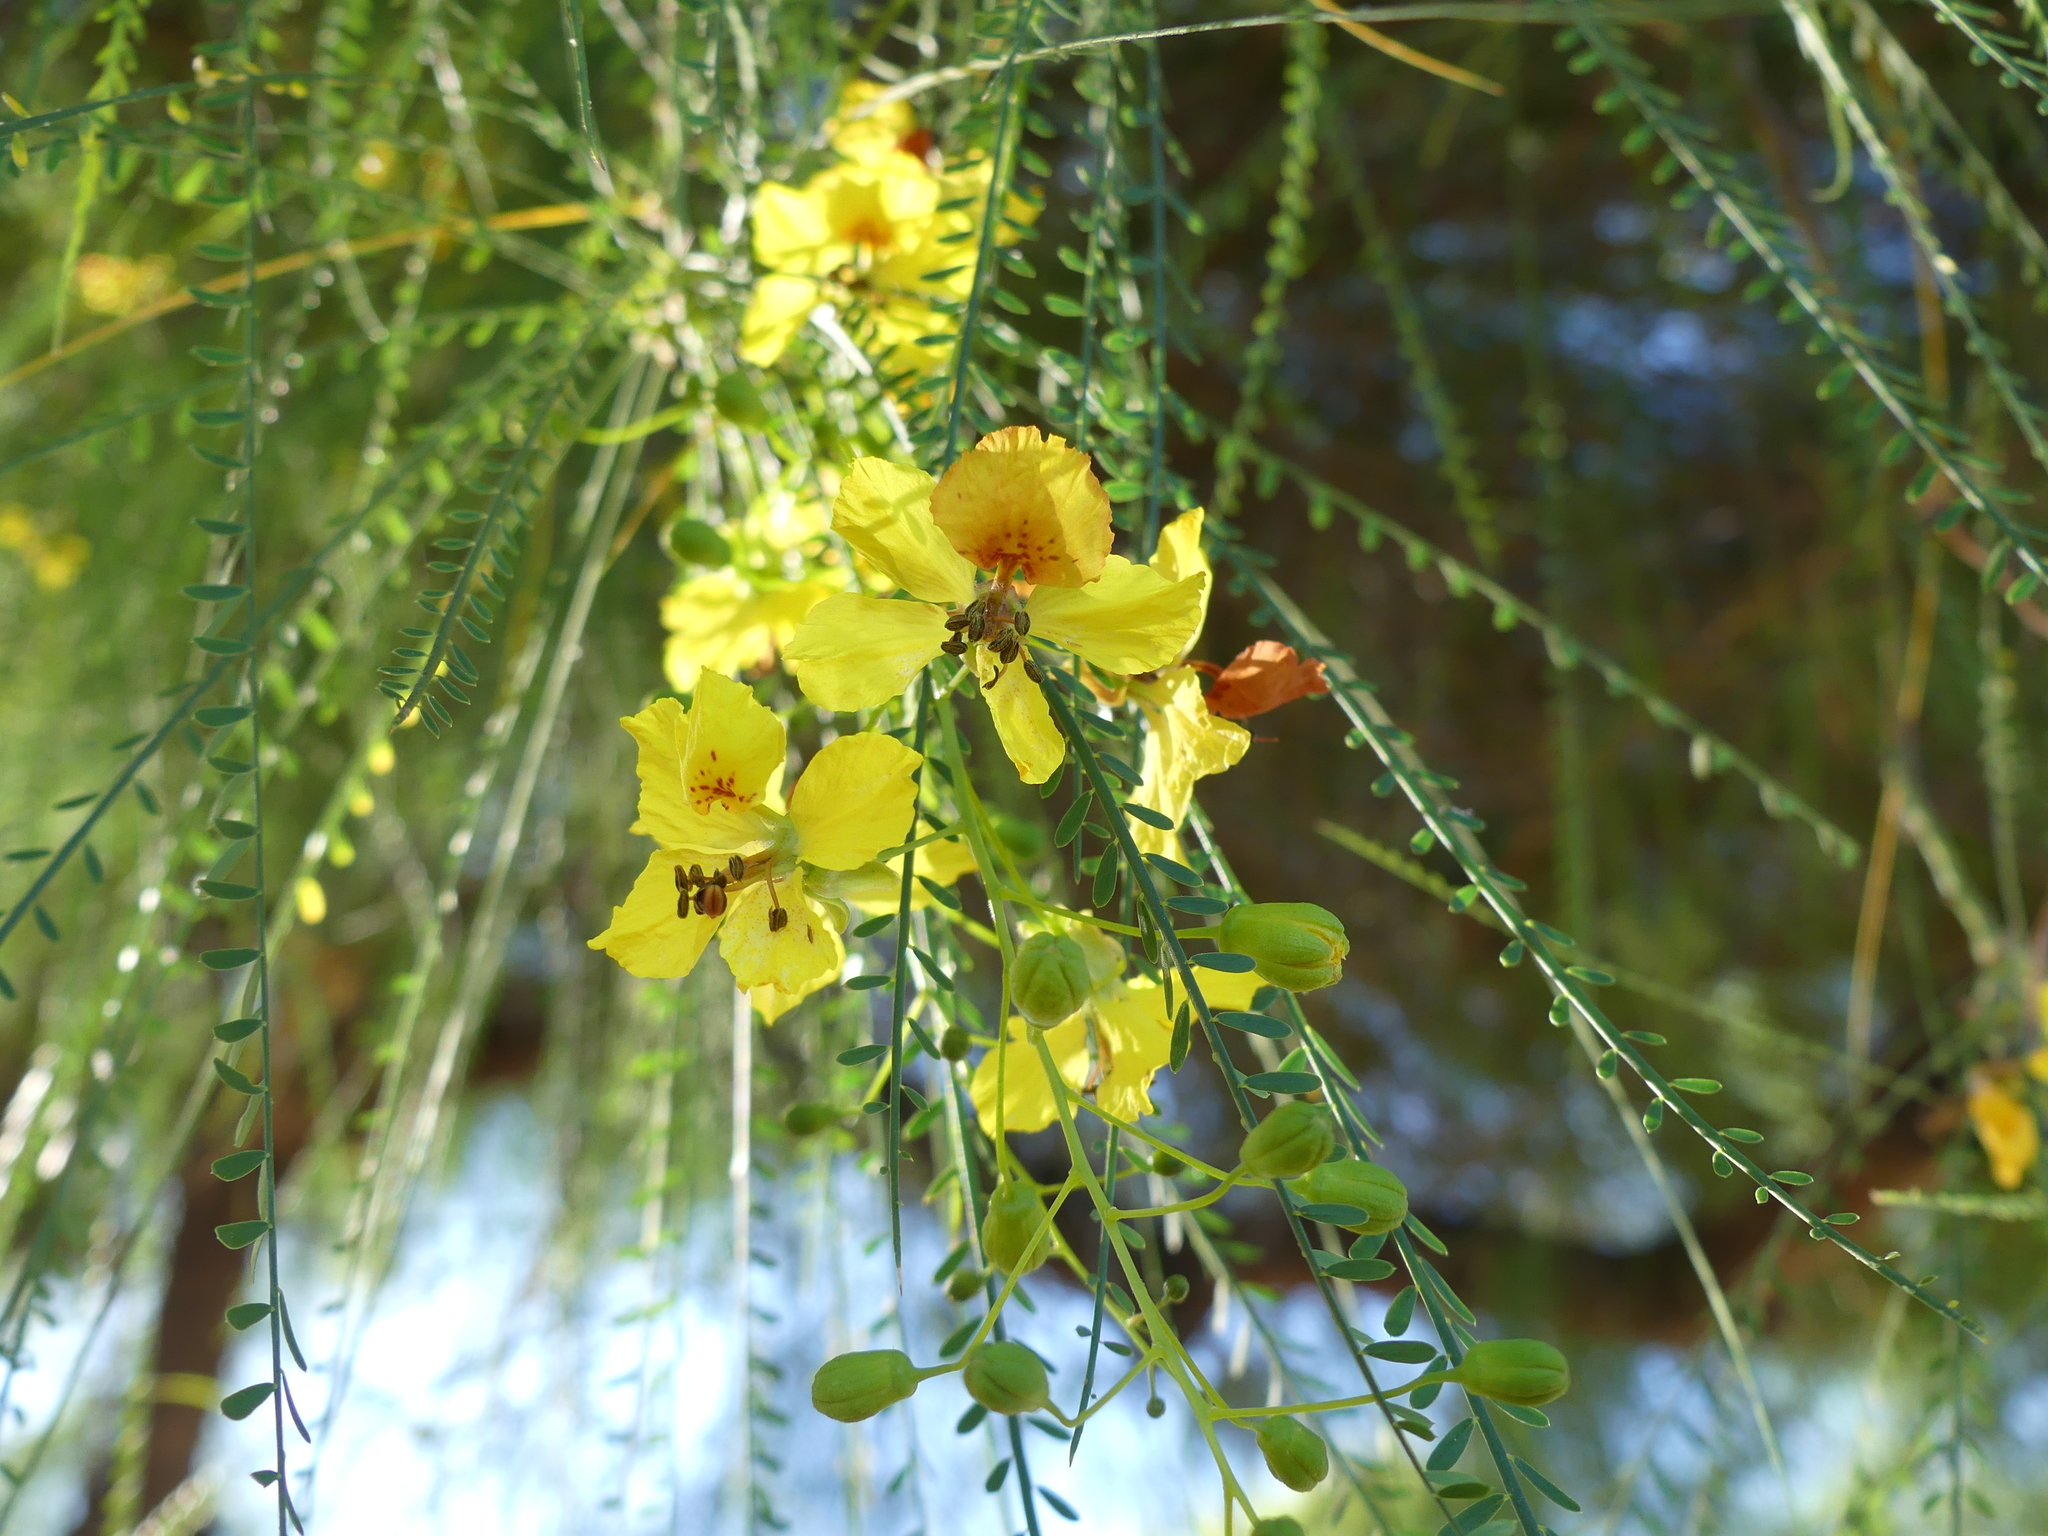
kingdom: Plantae
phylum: Tracheophyta
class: Magnoliopsida
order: Fabales
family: Fabaceae
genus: Parkinsonia
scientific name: Parkinsonia aculeata
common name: Jerusalem thorn
